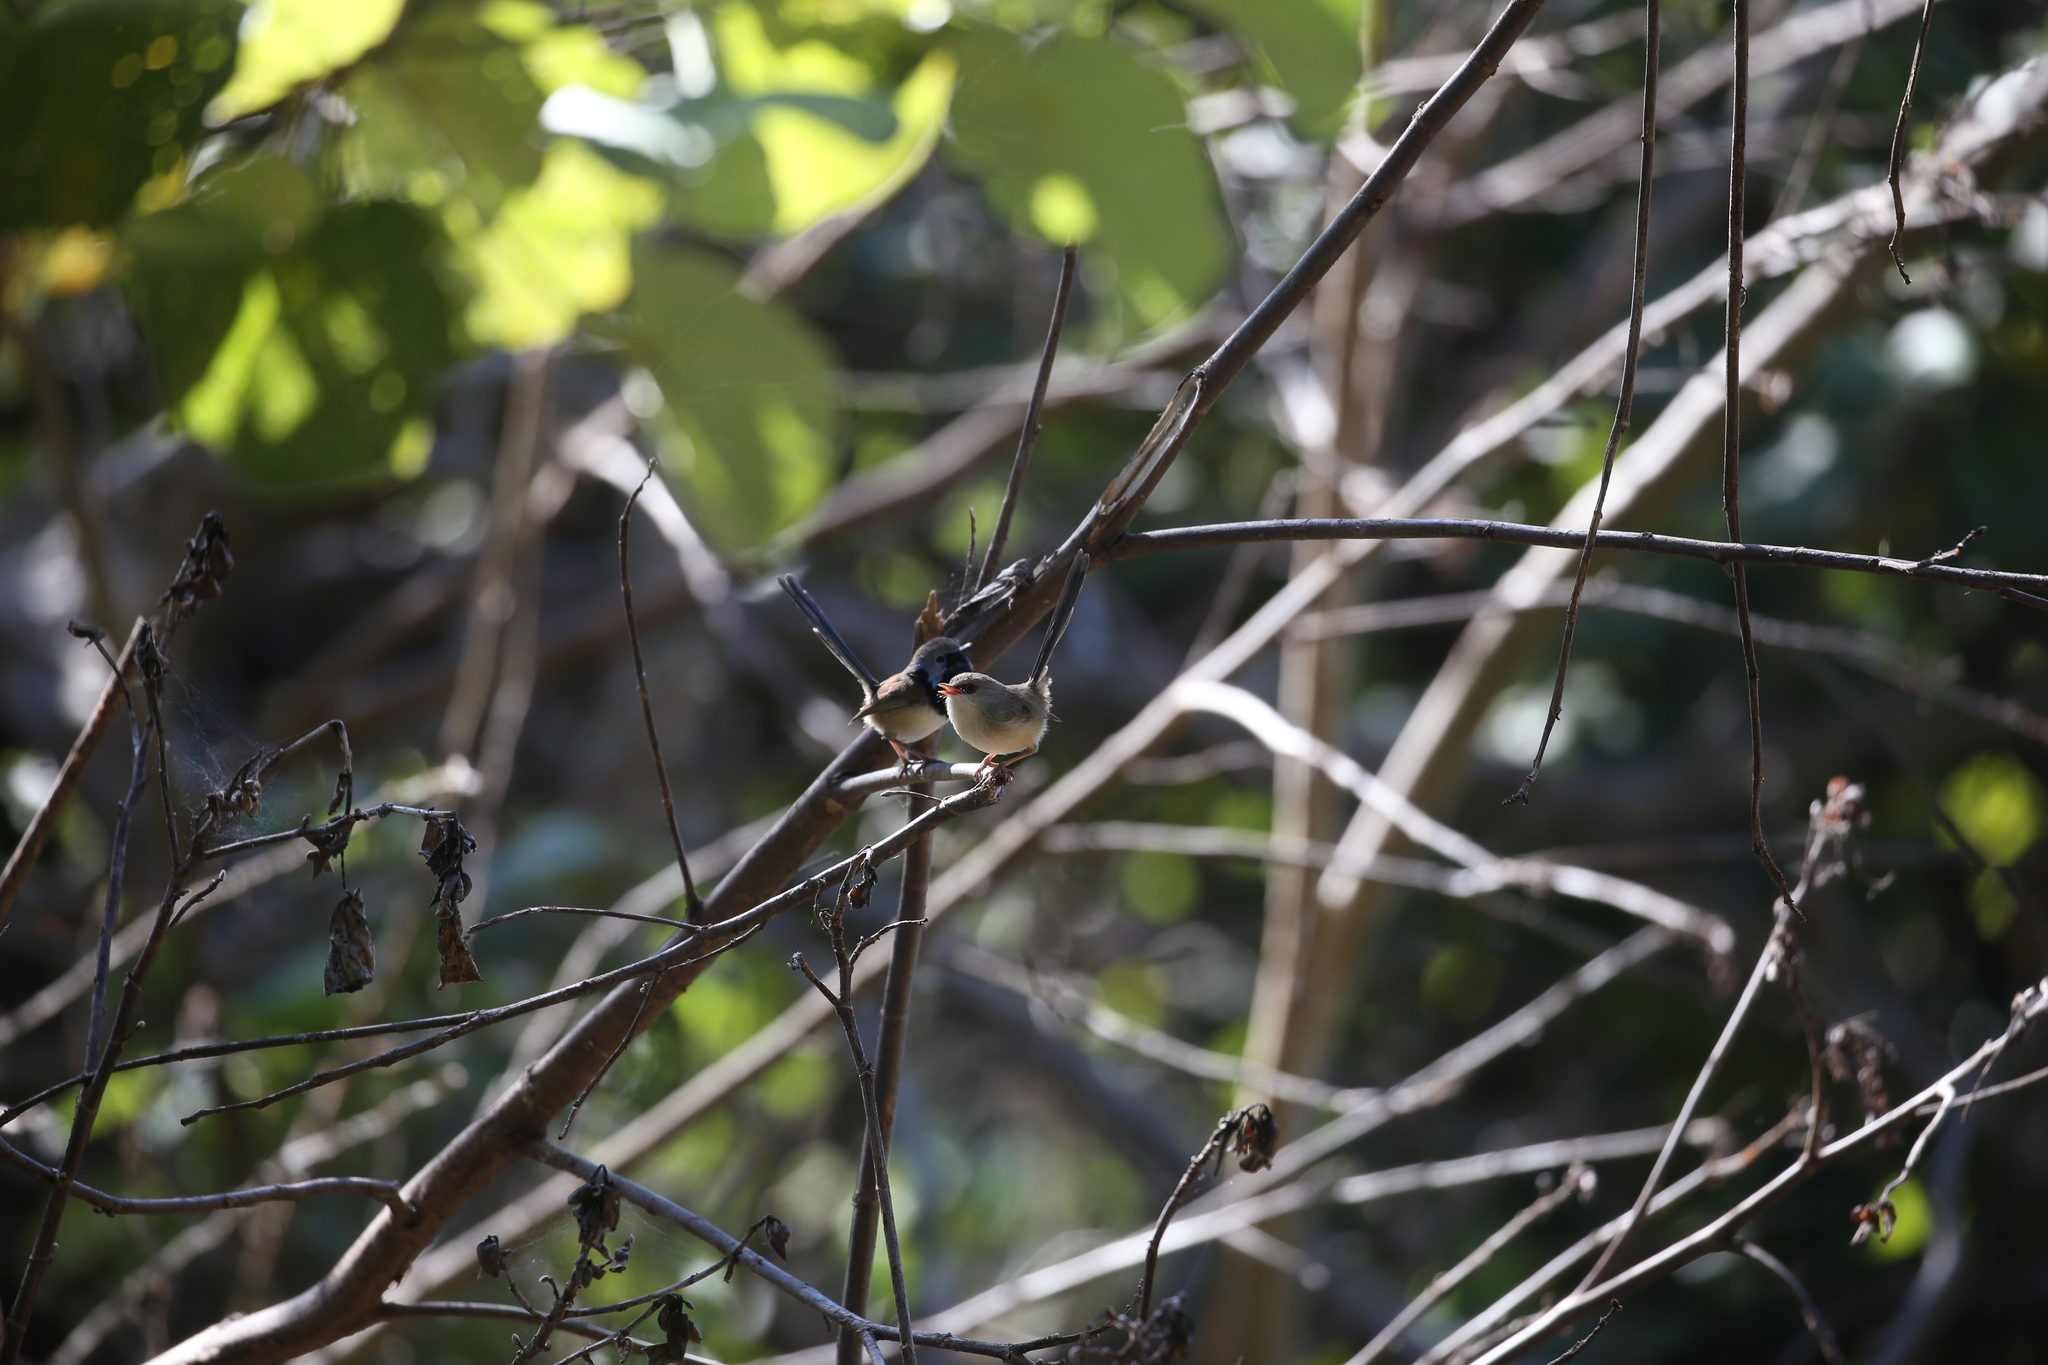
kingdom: Animalia
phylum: Chordata
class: Aves
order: Passeriformes
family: Maluridae
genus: Malurus
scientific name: Malurus lamberti
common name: Variegated fairywren
